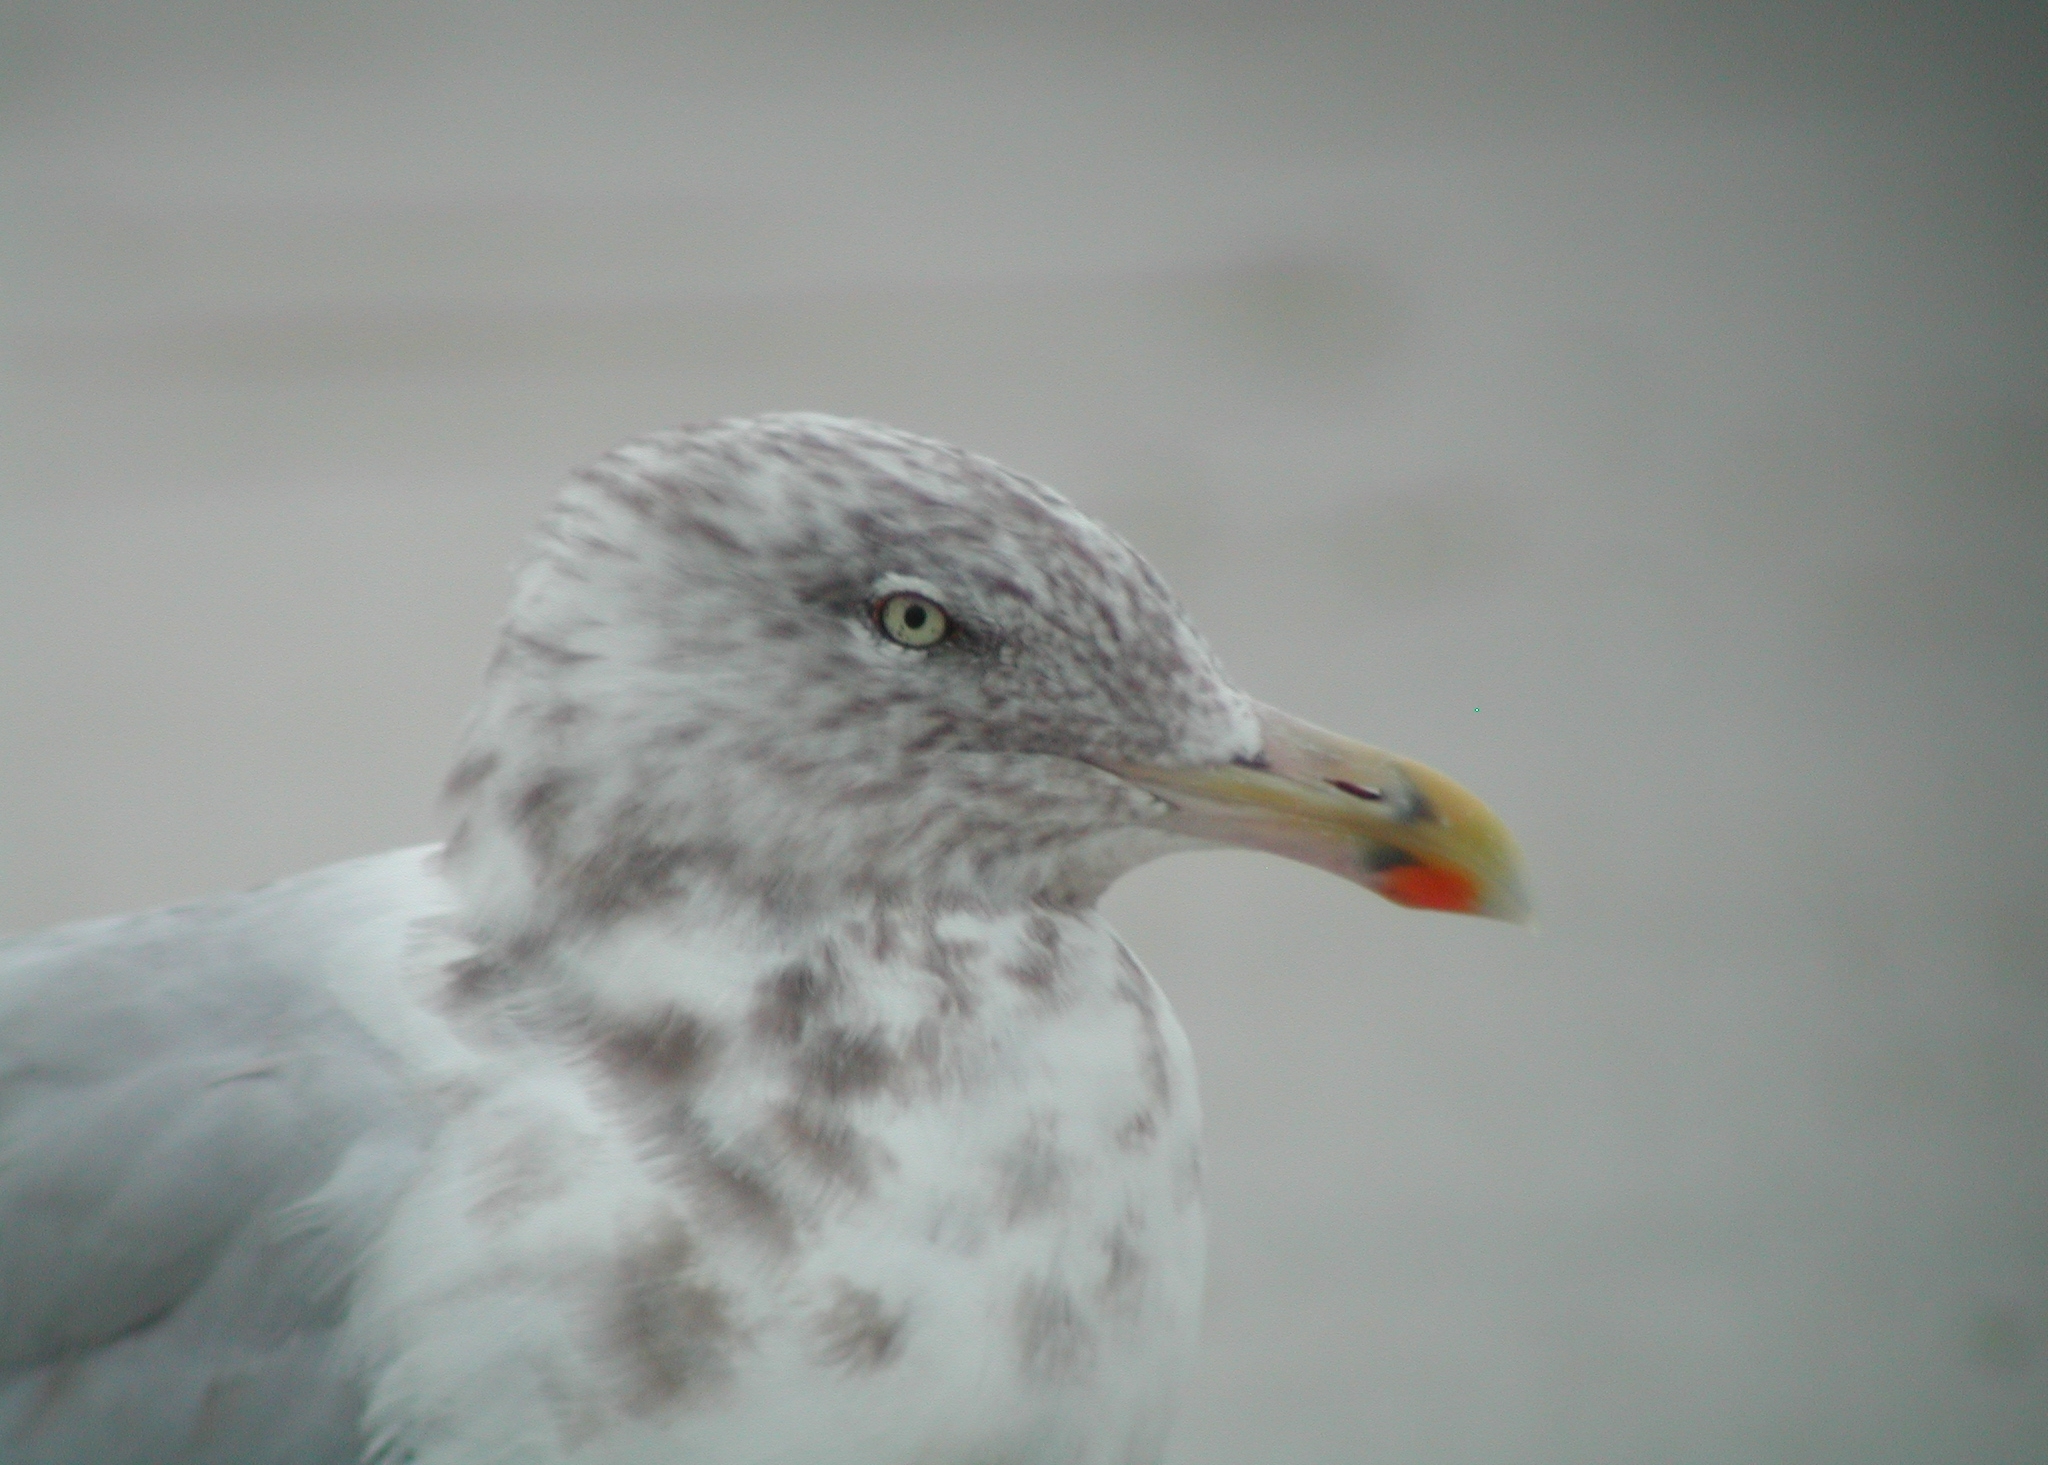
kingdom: Animalia
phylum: Chordata
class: Aves
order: Charadriiformes
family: Laridae
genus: Larus
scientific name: Larus argentatus
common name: Herring gull
